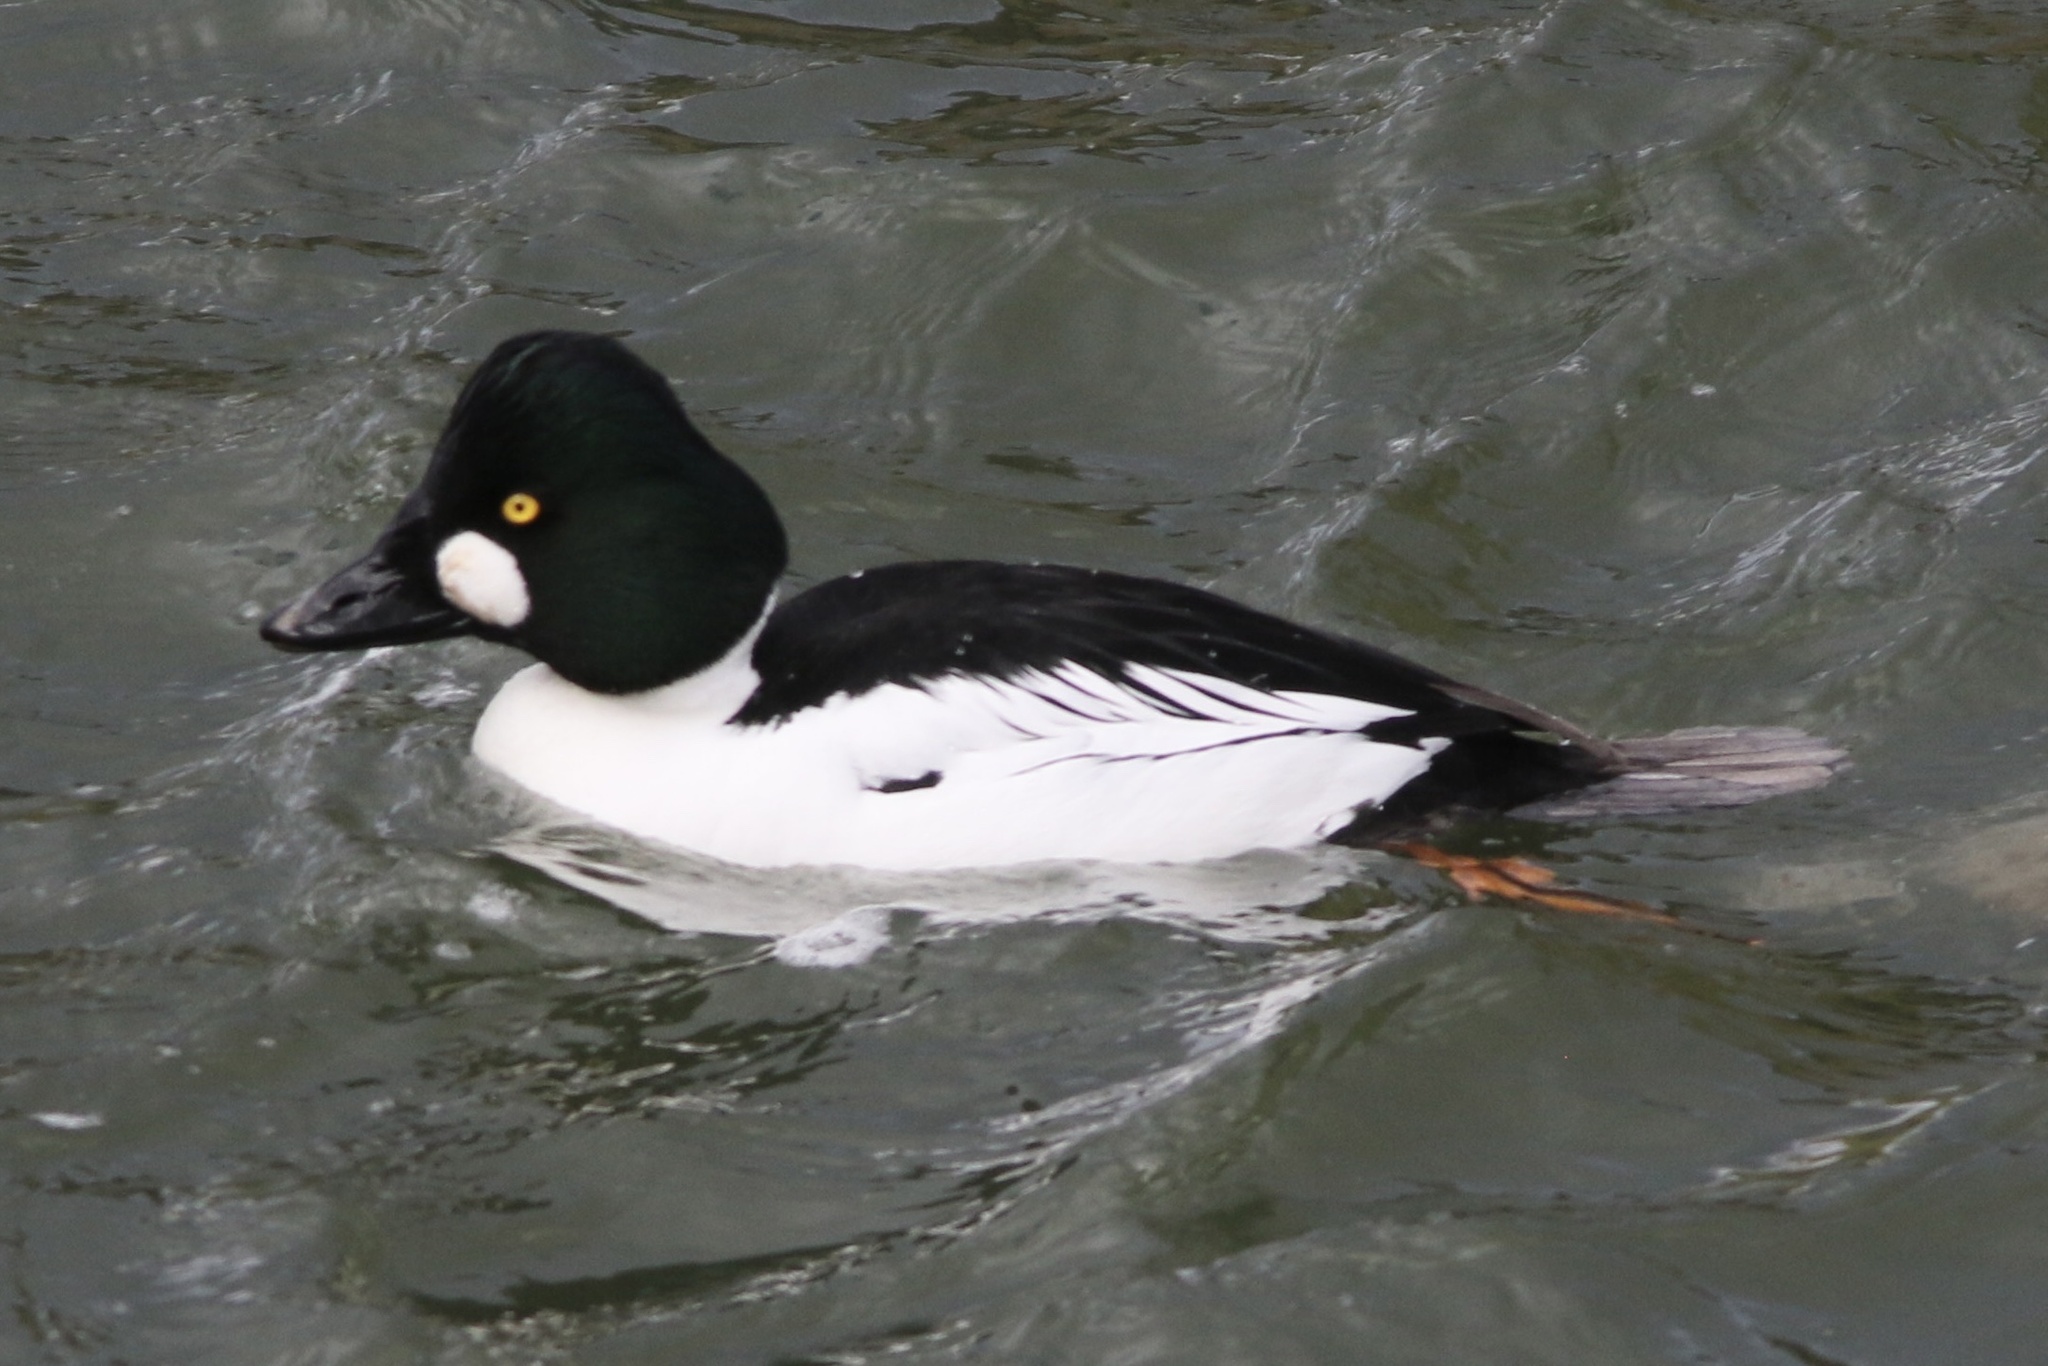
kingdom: Animalia
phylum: Chordata
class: Aves
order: Anseriformes
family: Anatidae
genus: Bucephala
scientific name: Bucephala clangula
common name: Common goldeneye
